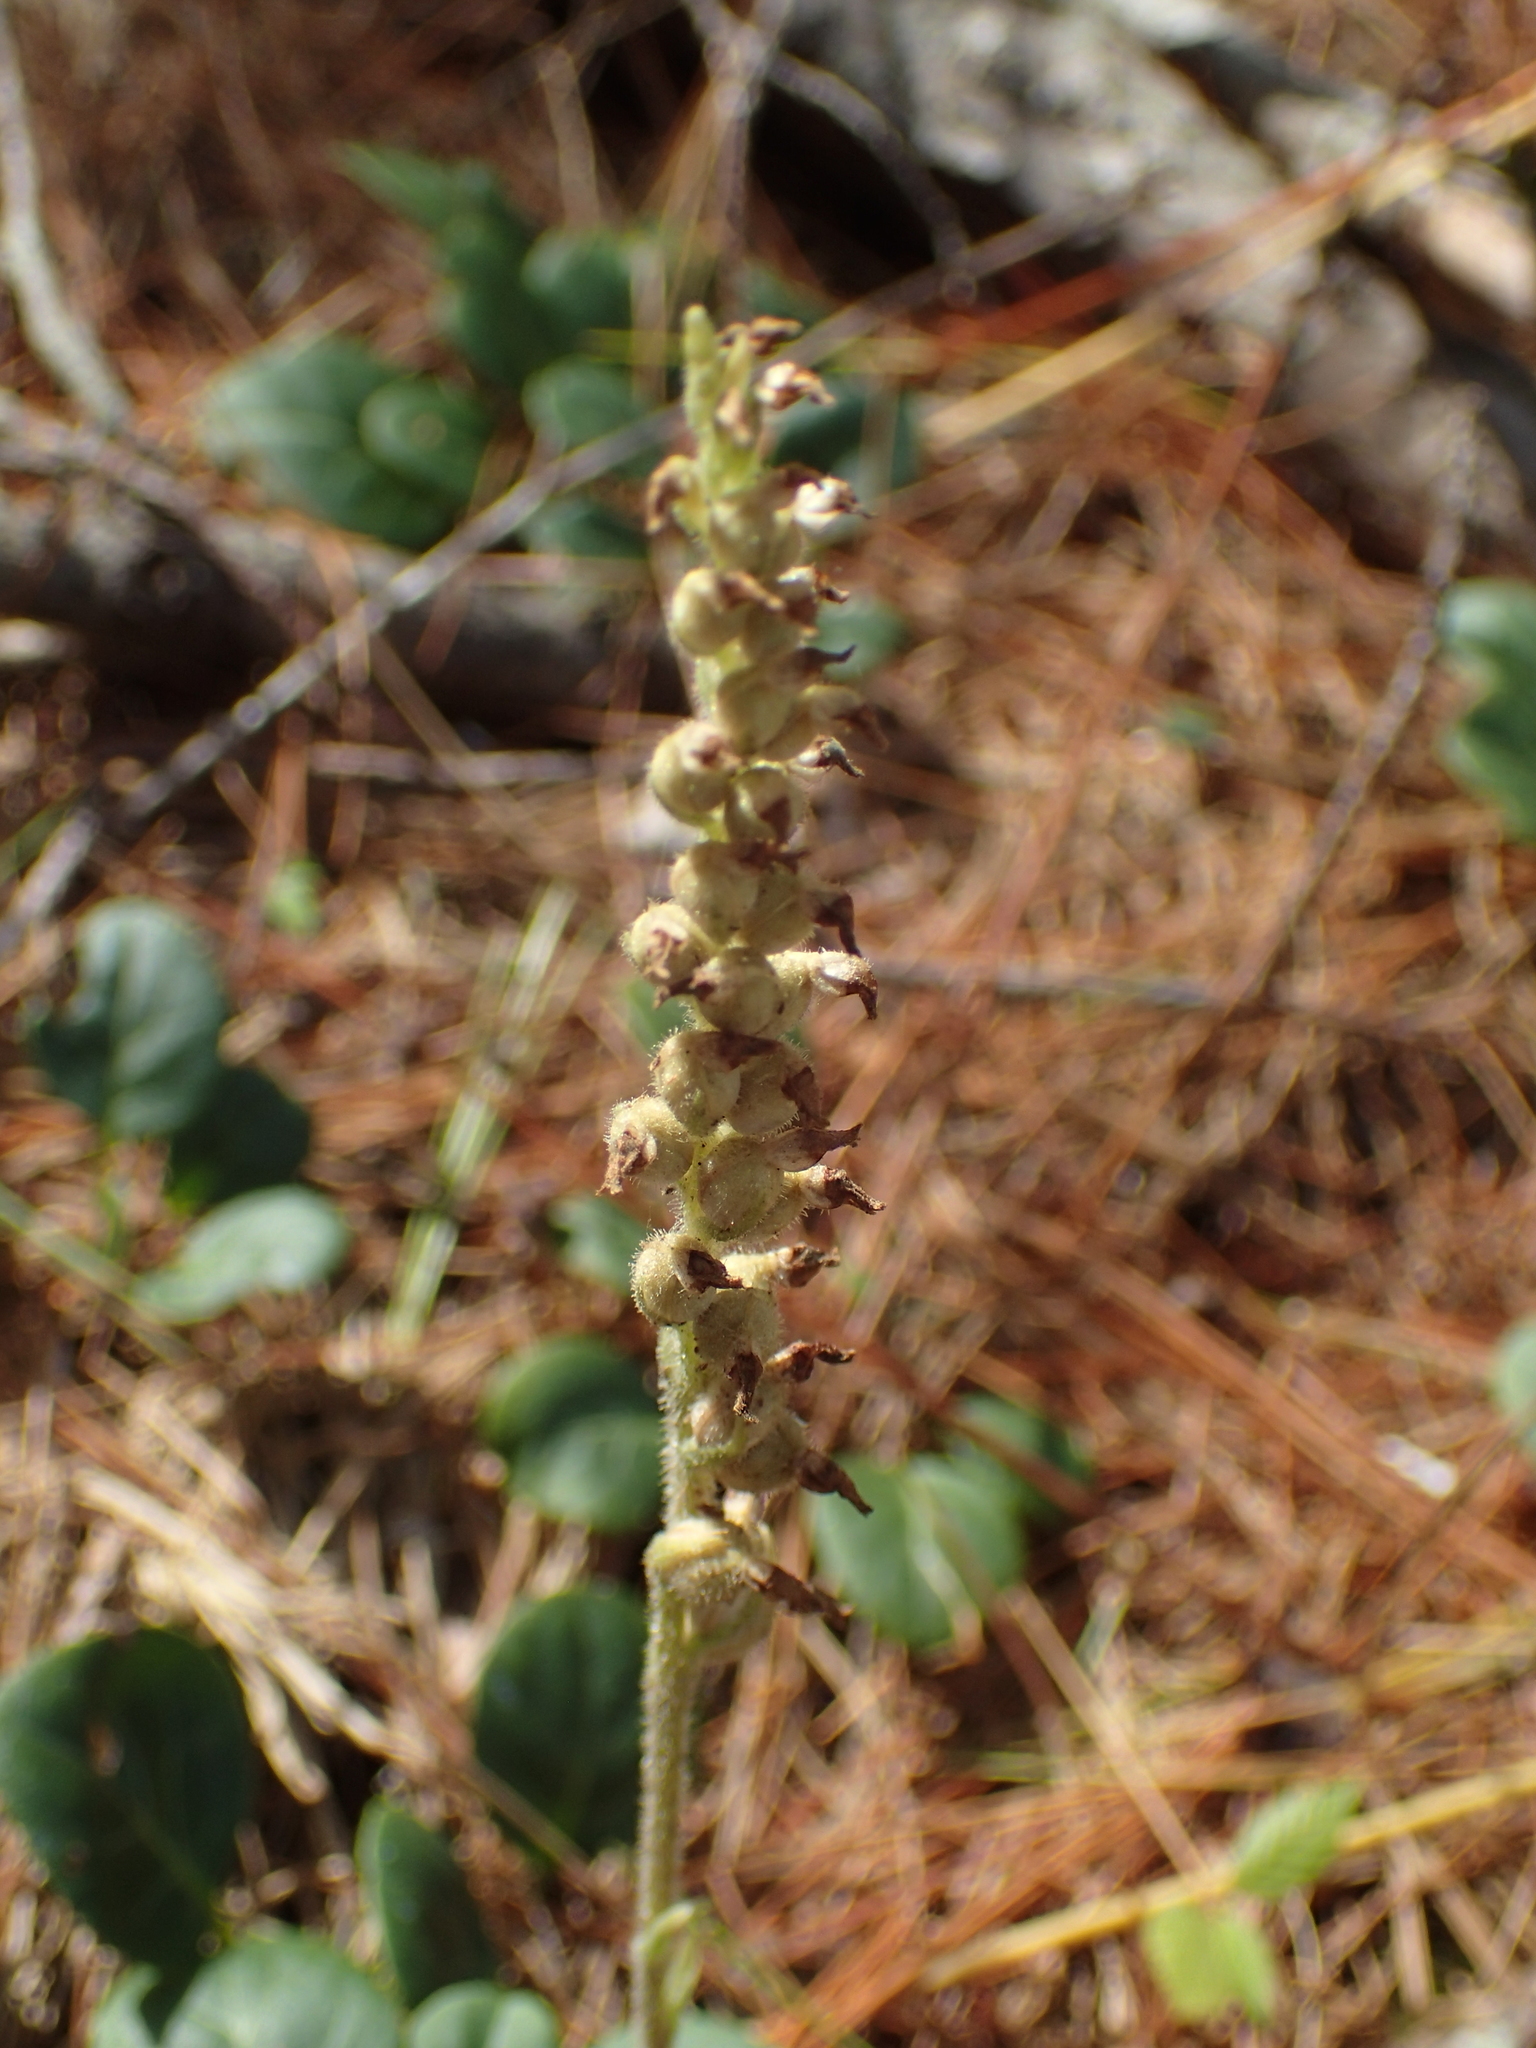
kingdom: Plantae
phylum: Tracheophyta
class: Liliopsida
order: Asparagales
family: Orchidaceae
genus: Goodyera
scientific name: Goodyera tesselata
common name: Checkered rattlesnake-plantain
